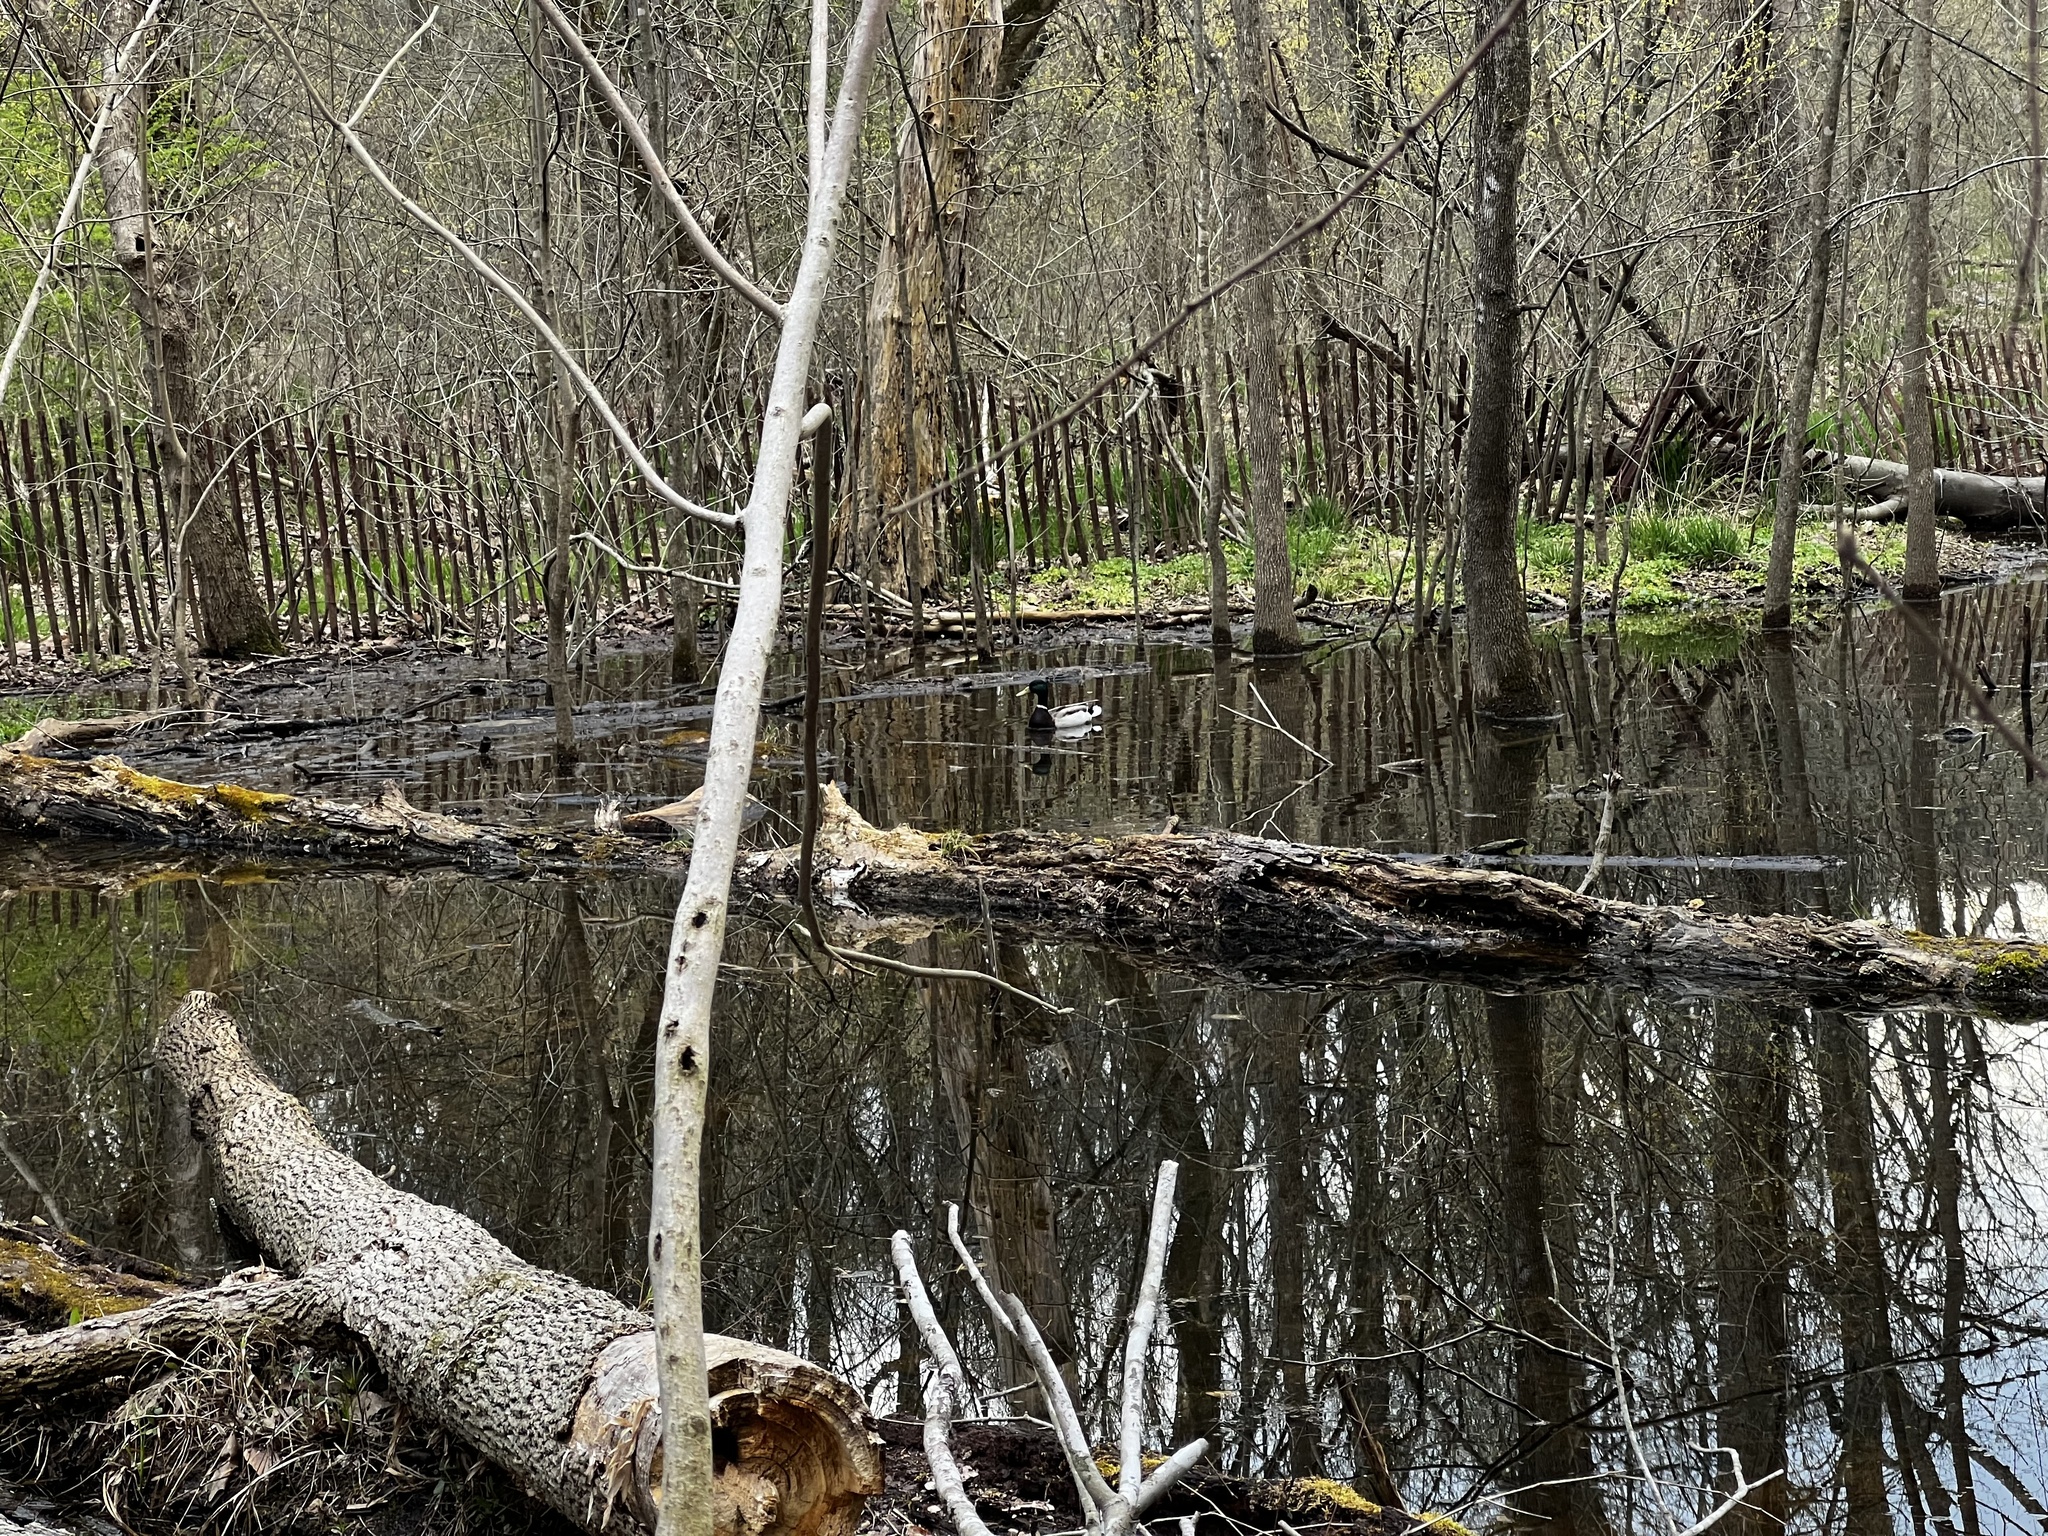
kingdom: Animalia
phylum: Chordata
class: Aves
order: Anseriformes
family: Anatidae
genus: Anas
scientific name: Anas platyrhynchos
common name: Mallard
